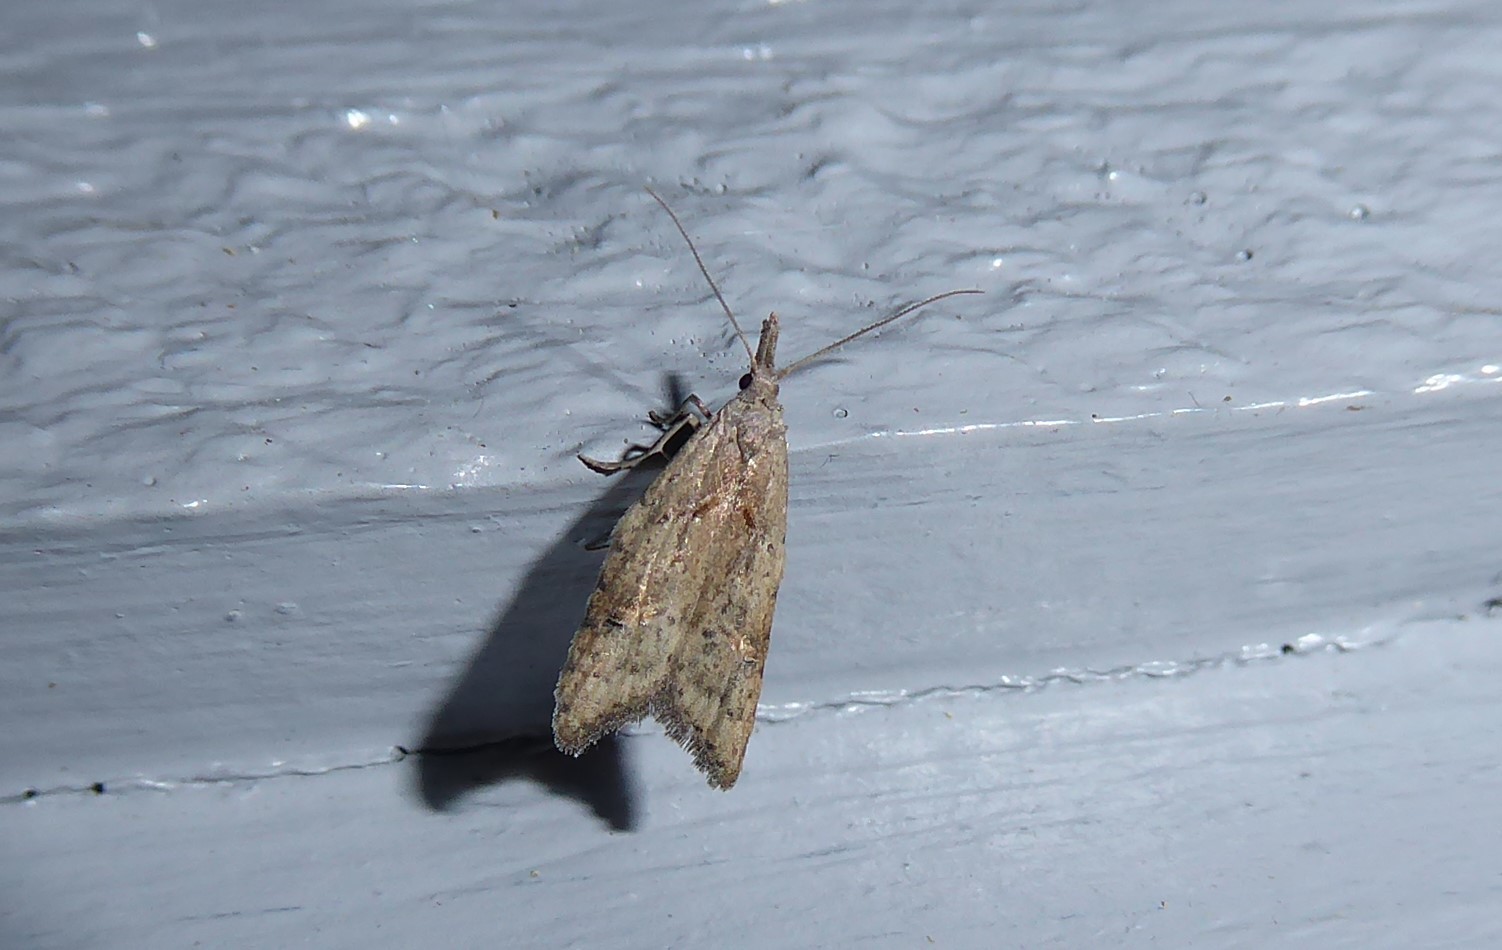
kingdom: Animalia
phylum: Arthropoda
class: Insecta
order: Lepidoptera
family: Carposinidae
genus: Carposina
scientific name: Carposina rubophaga
